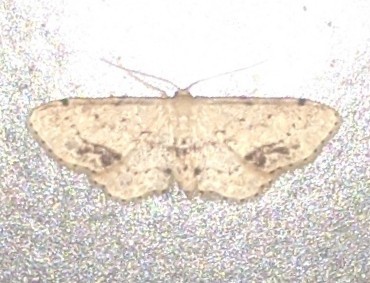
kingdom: Animalia
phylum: Arthropoda
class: Insecta
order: Lepidoptera
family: Geometridae
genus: Idaea
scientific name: Idaea dimidiata
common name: Single-dotted wave
